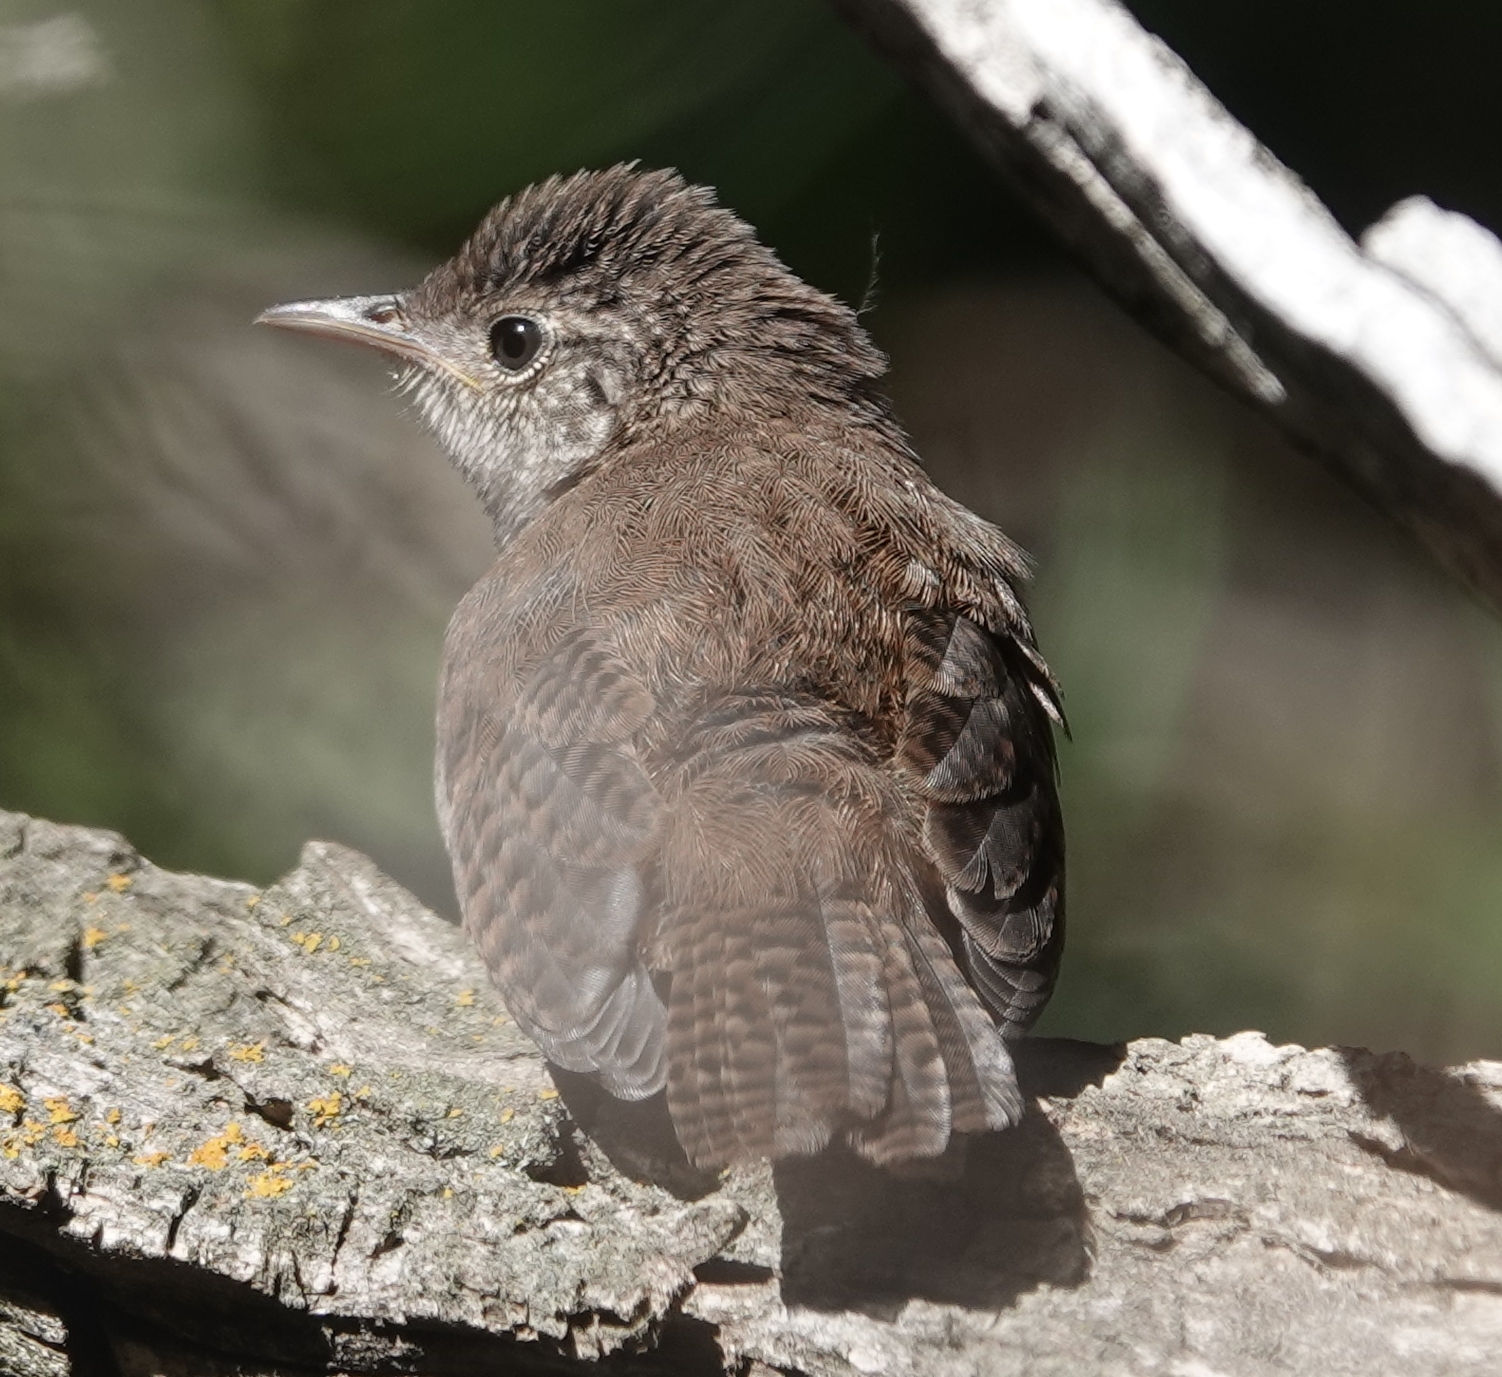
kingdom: Animalia
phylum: Chordata
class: Aves
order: Passeriformes
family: Troglodytidae
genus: Troglodytes
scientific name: Troglodytes aedon
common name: House wren
